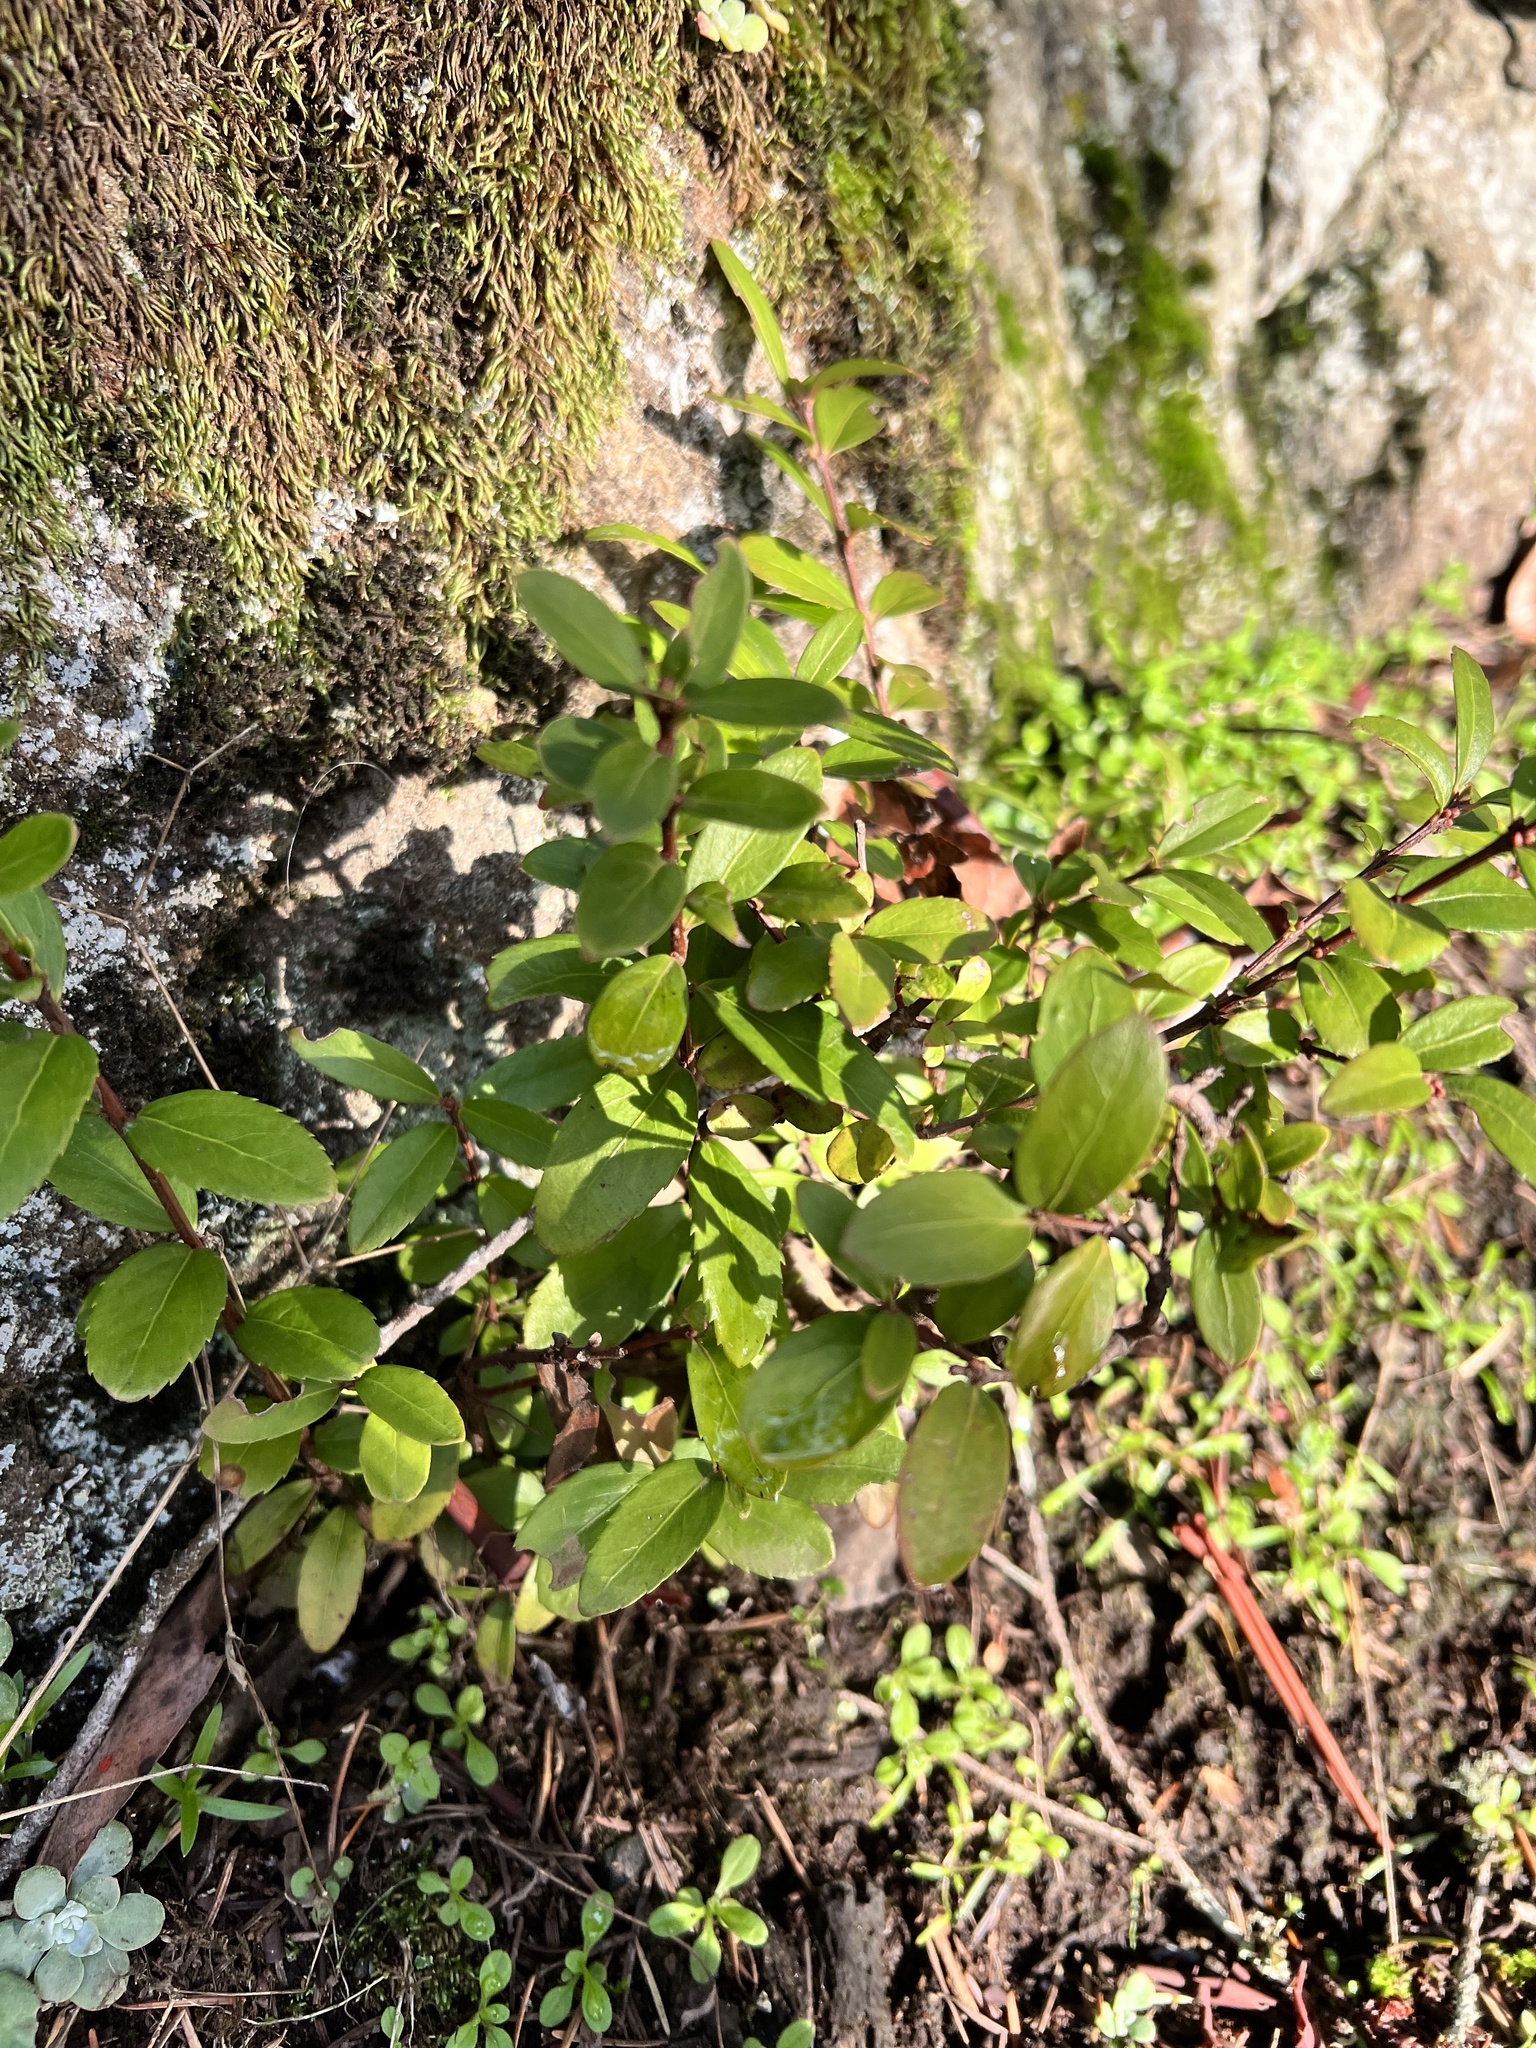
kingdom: Plantae
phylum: Tracheophyta
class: Magnoliopsida
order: Celastrales
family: Celastraceae
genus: Paxistima
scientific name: Paxistima myrsinites
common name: Mountain-lover
